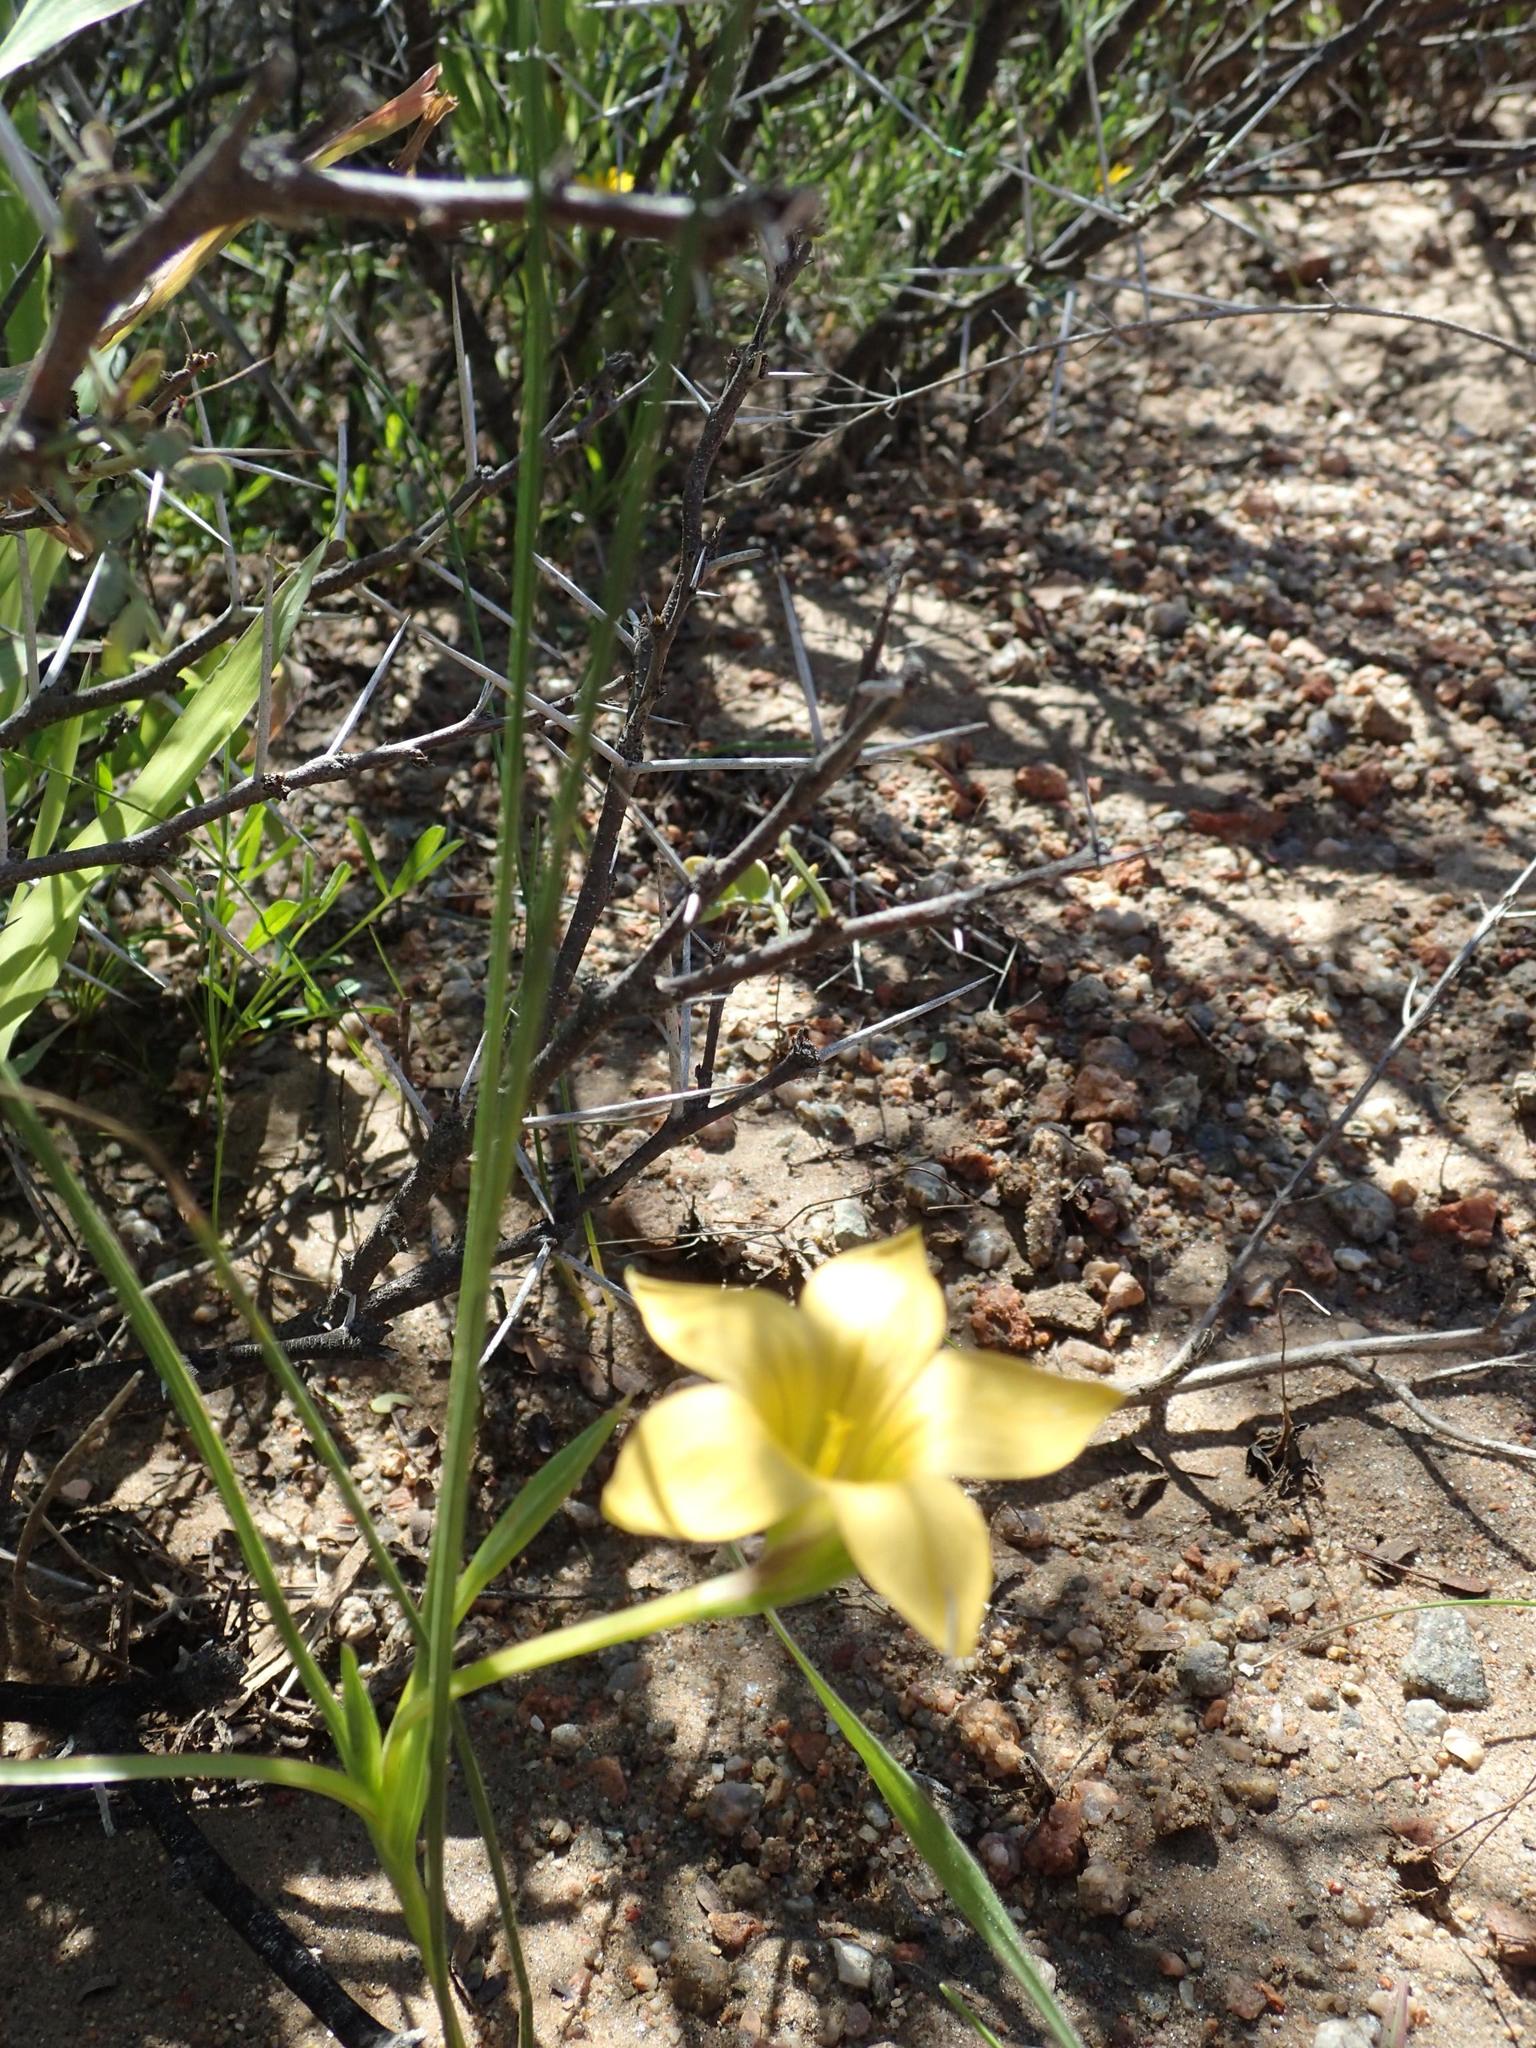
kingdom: Plantae
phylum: Tracheophyta
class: Liliopsida
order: Asparagales
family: Iridaceae
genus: Romulea
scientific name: Romulea citrina
